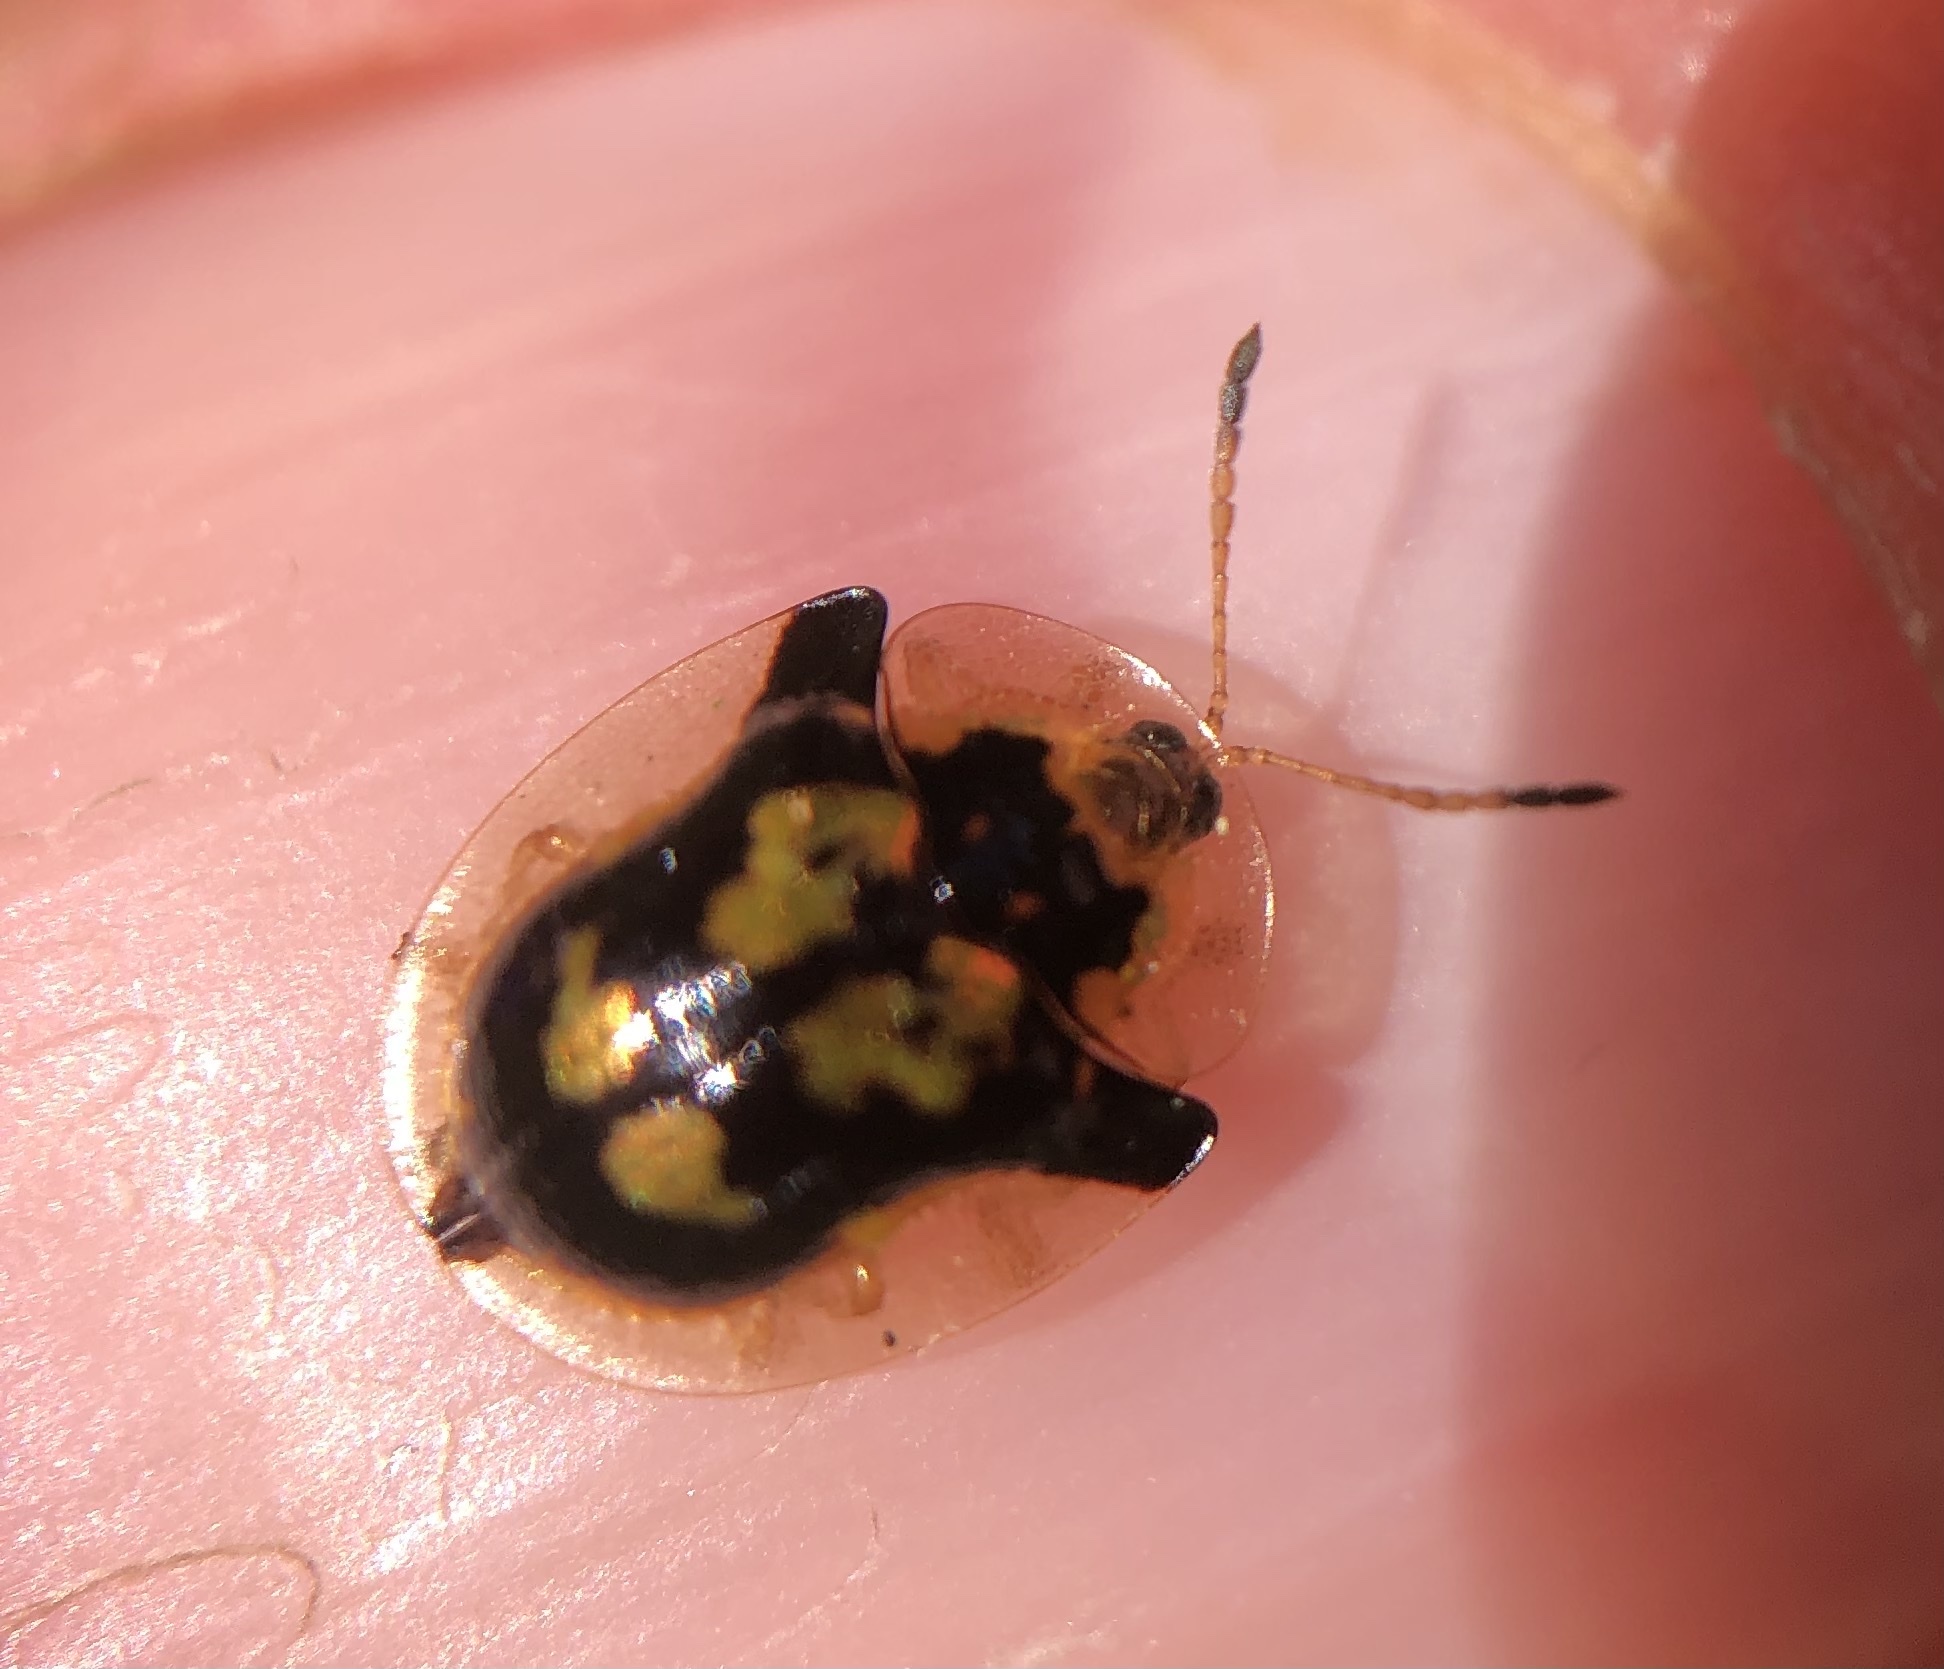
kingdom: Animalia
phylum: Arthropoda
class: Insecta
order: Coleoptera
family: Chrysomelidae
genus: Deloyala
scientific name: Deloyala guttata
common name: Mottled tortoise beetle
